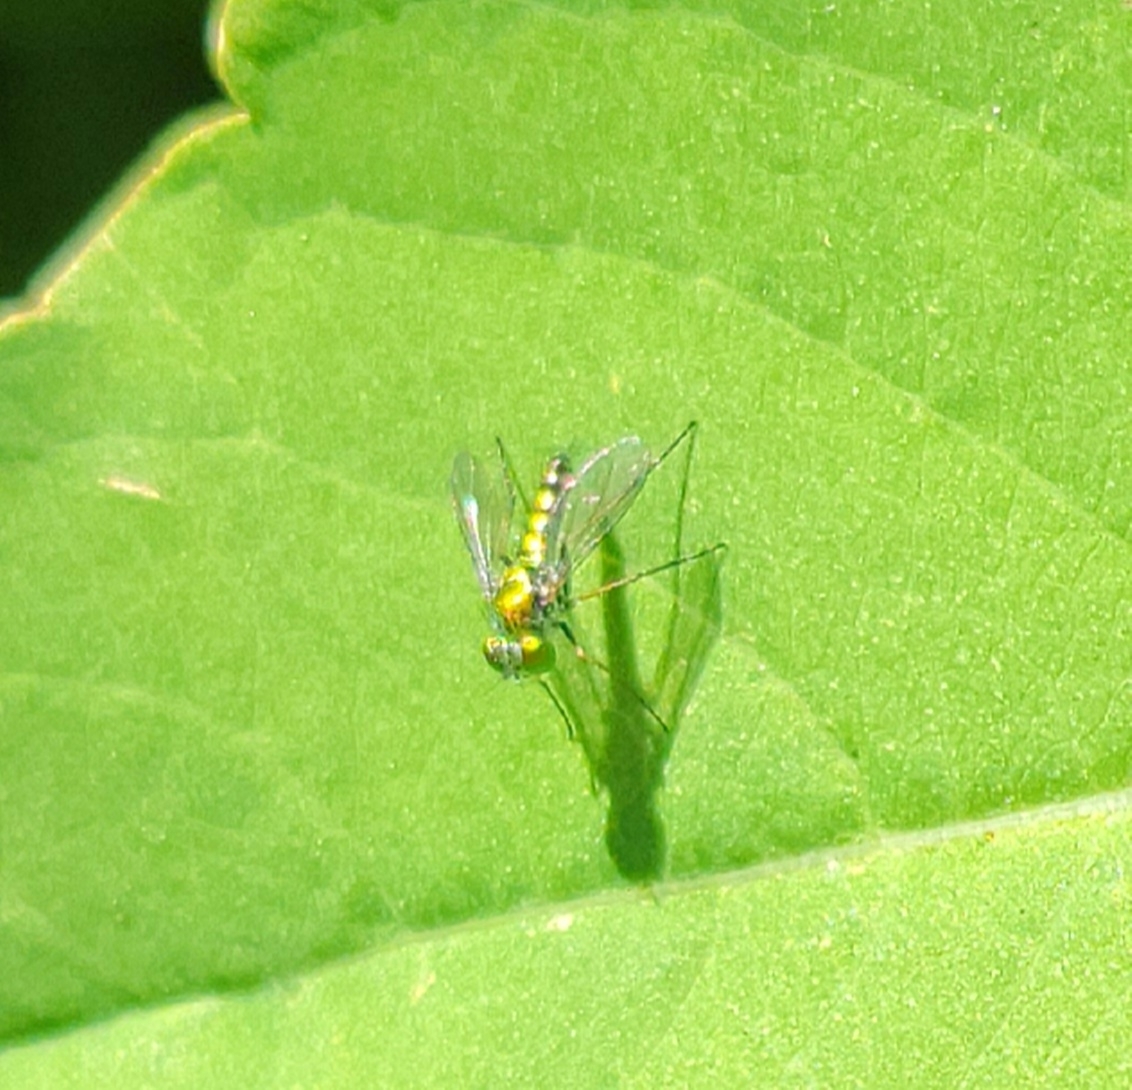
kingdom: Animalia
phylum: Arthropoda
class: Insecta
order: Diptera
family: Dolichopodidae
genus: Condylostylus
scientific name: Condylostylus
